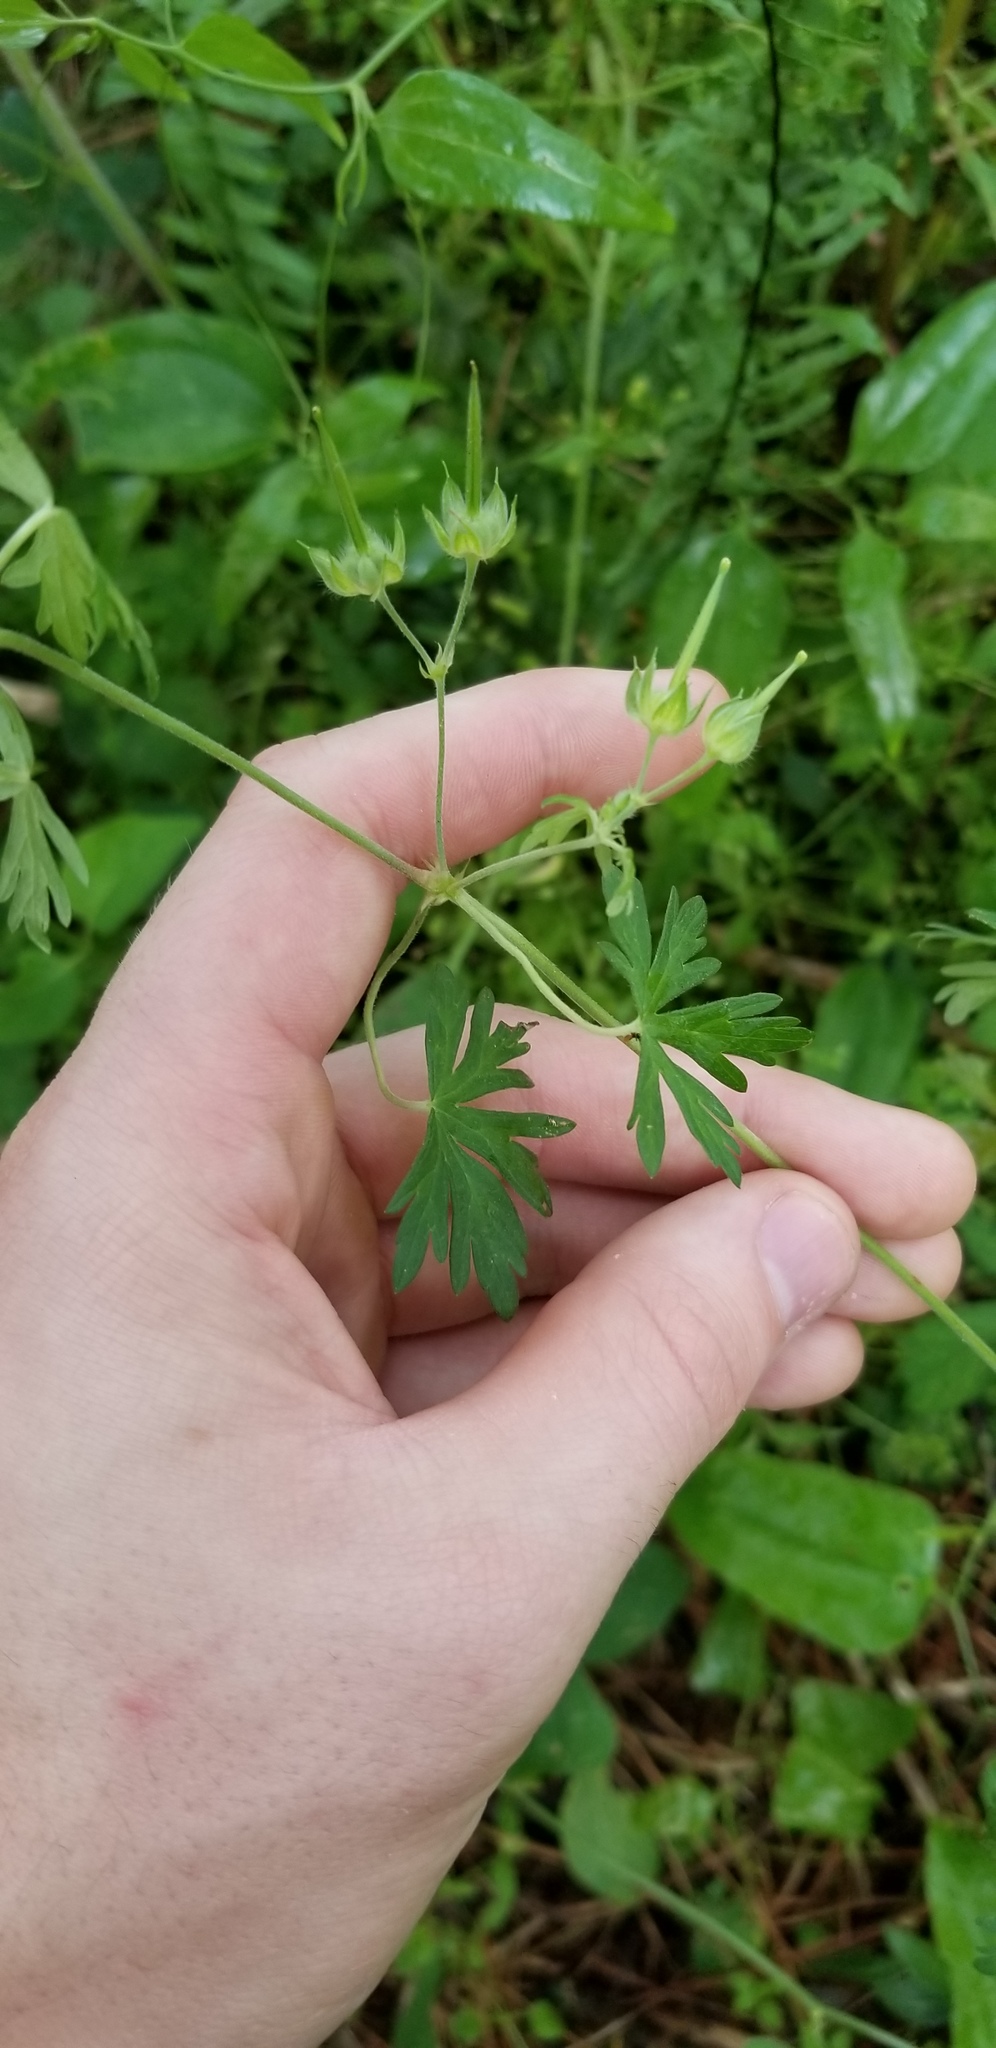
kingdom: Plantae
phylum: Tracheophyta
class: Magnoliopsida
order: Geraniales
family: Geraniaceae
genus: Geranium
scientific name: Geranium carolinianum
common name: Carolina crane's-bill
